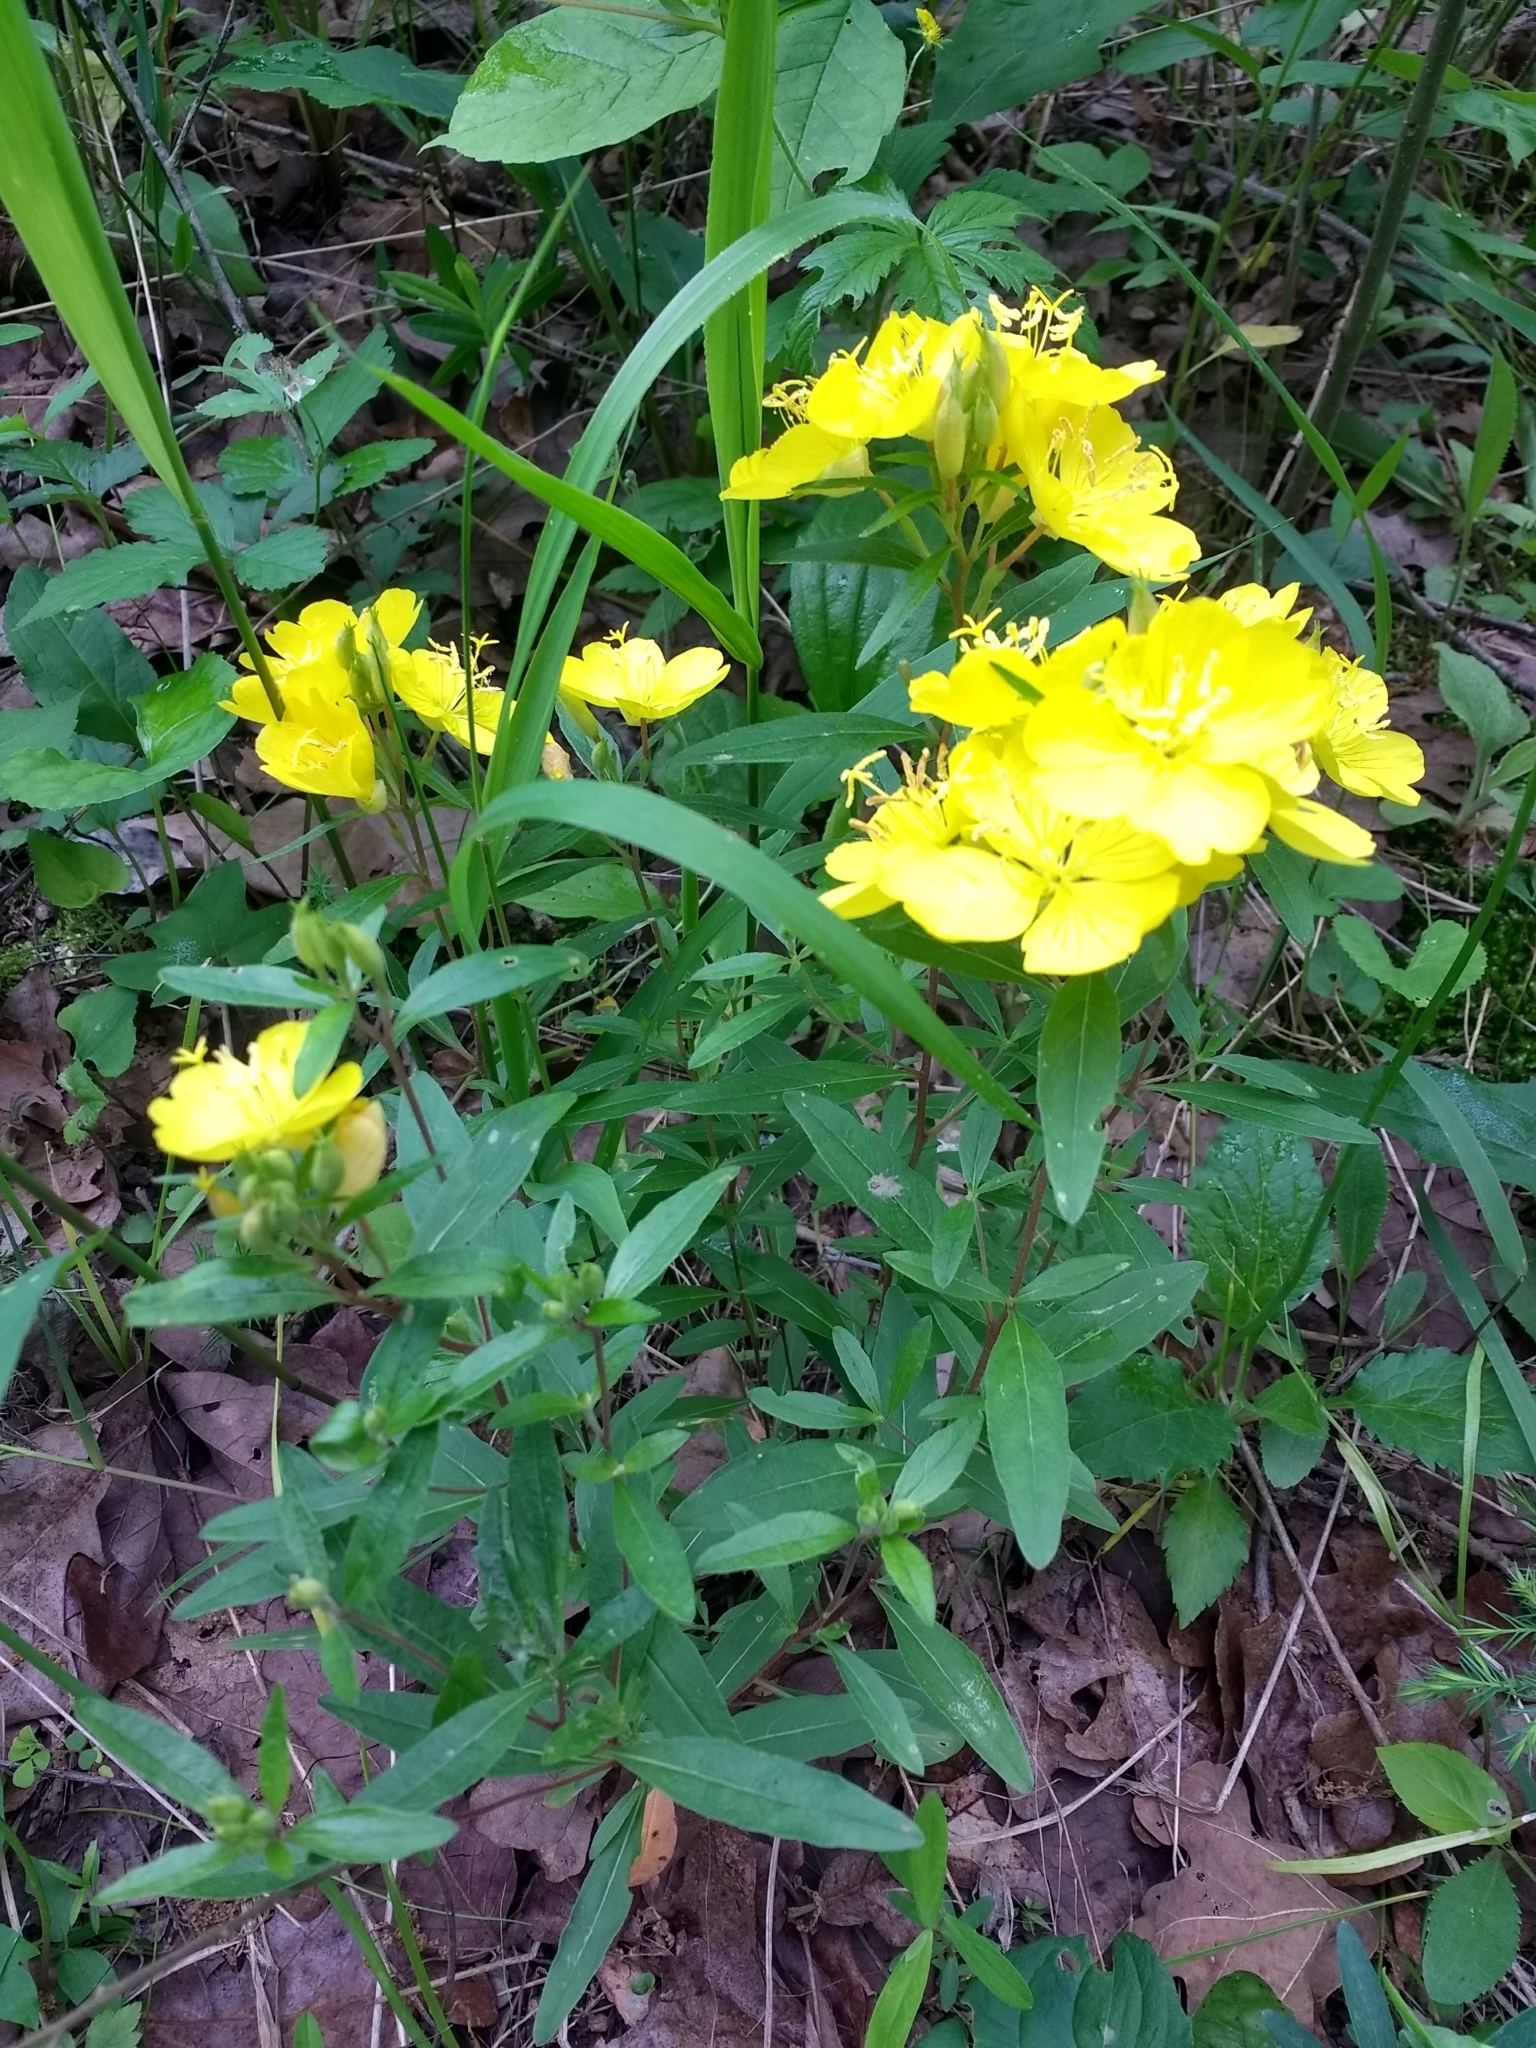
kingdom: Plantae
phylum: Tracheophyta
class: Magnoliopsida
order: Myrtales
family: Onagraceae
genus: Oenothera
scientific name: Oenothera fruticosa
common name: Southern sundrops
